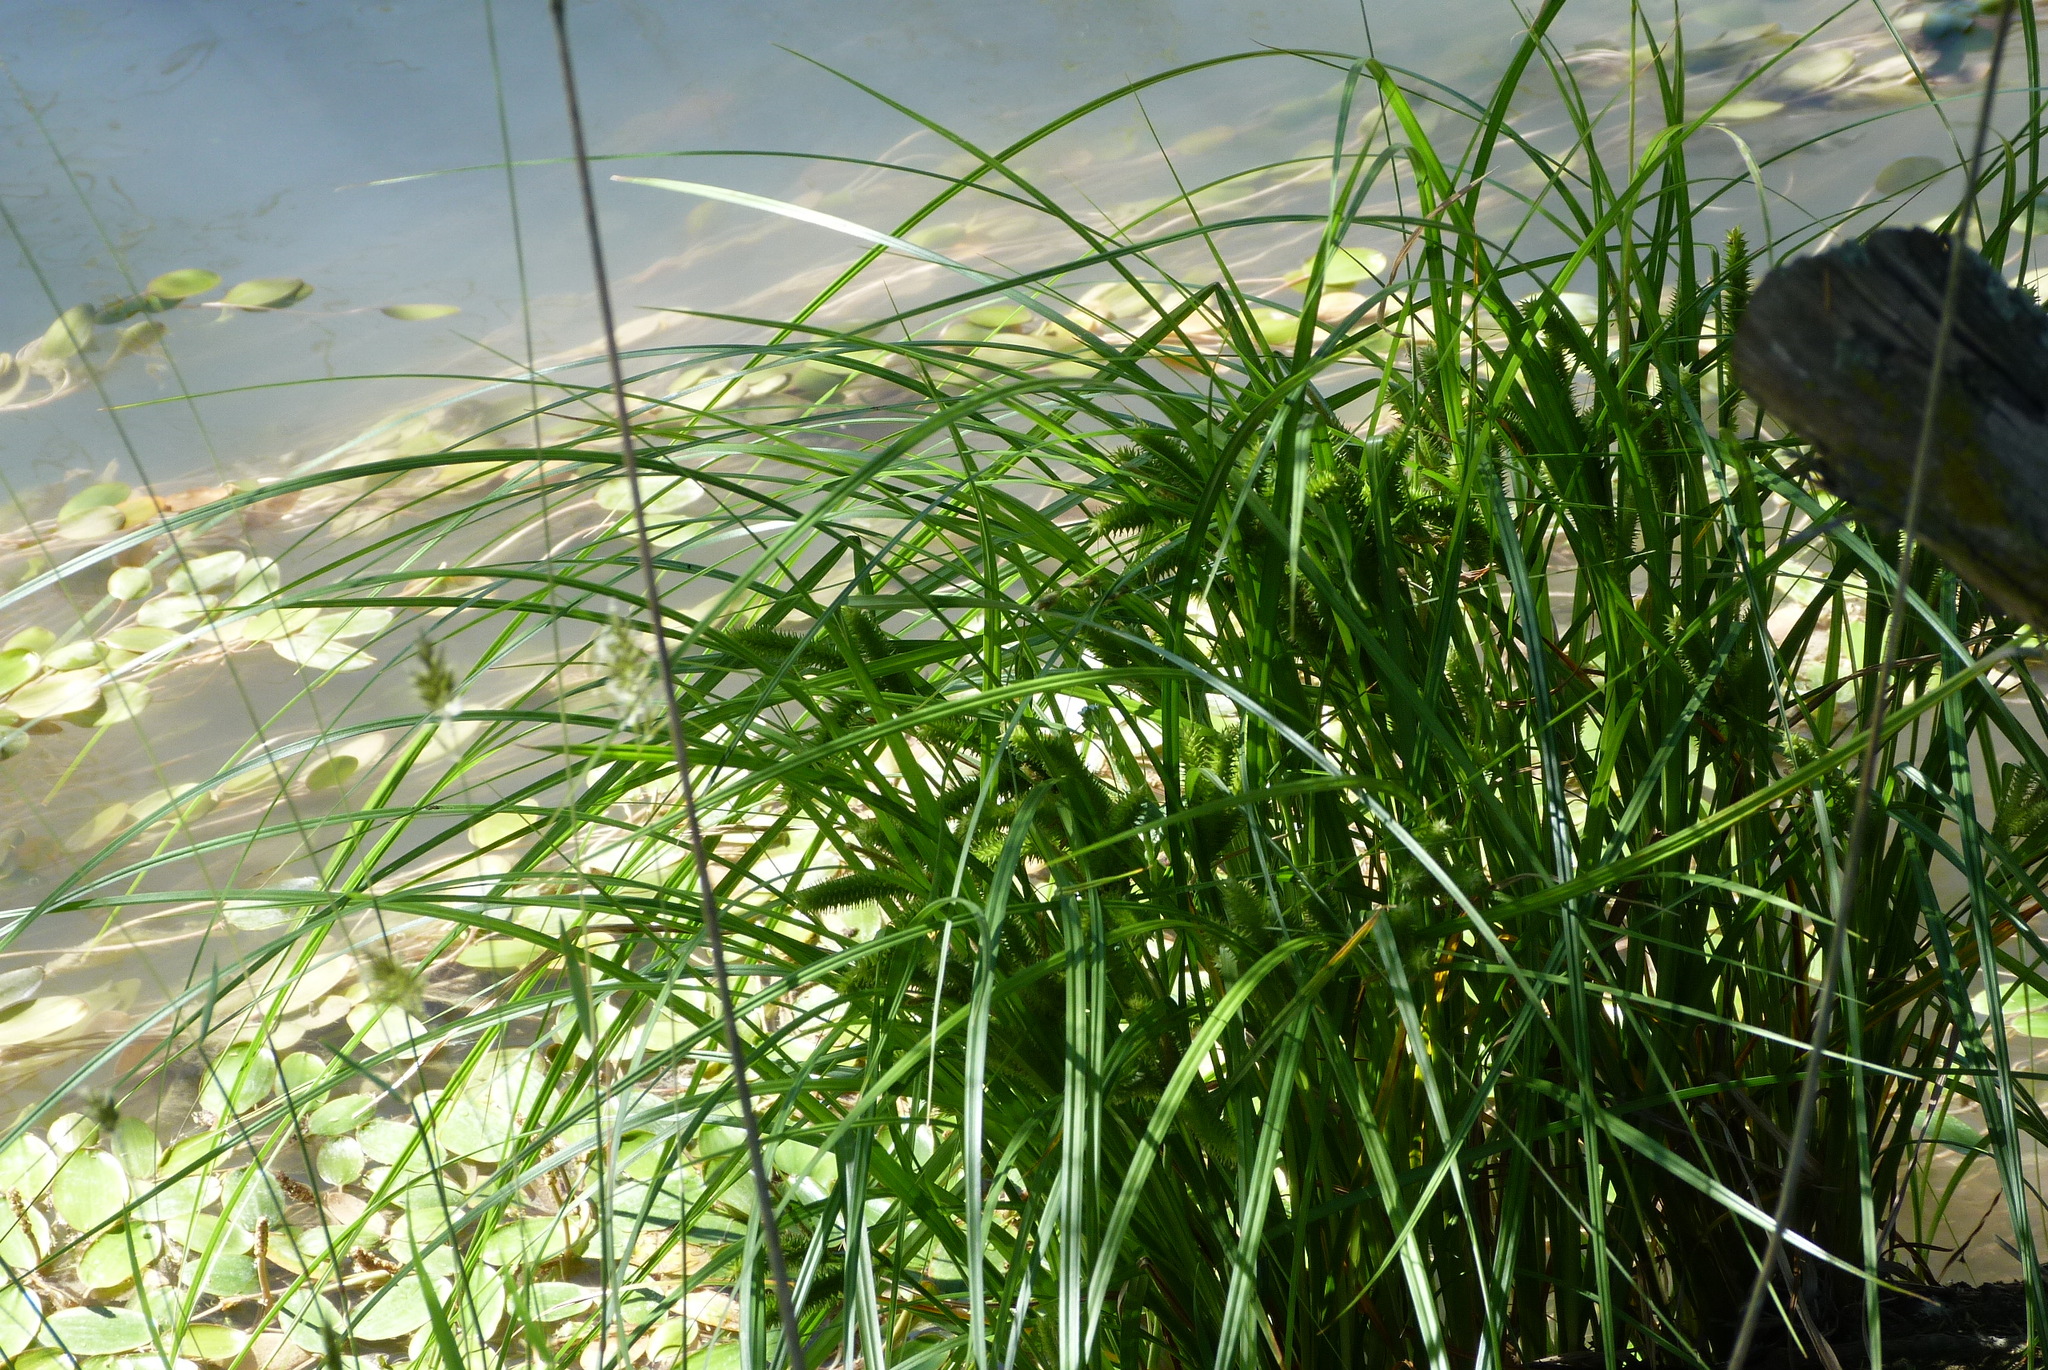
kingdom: Plantae
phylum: Tracheophyta
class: Liliopsida
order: Poales
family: Cyperaceae
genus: Carex
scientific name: Carex maorica
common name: Maori sedge
